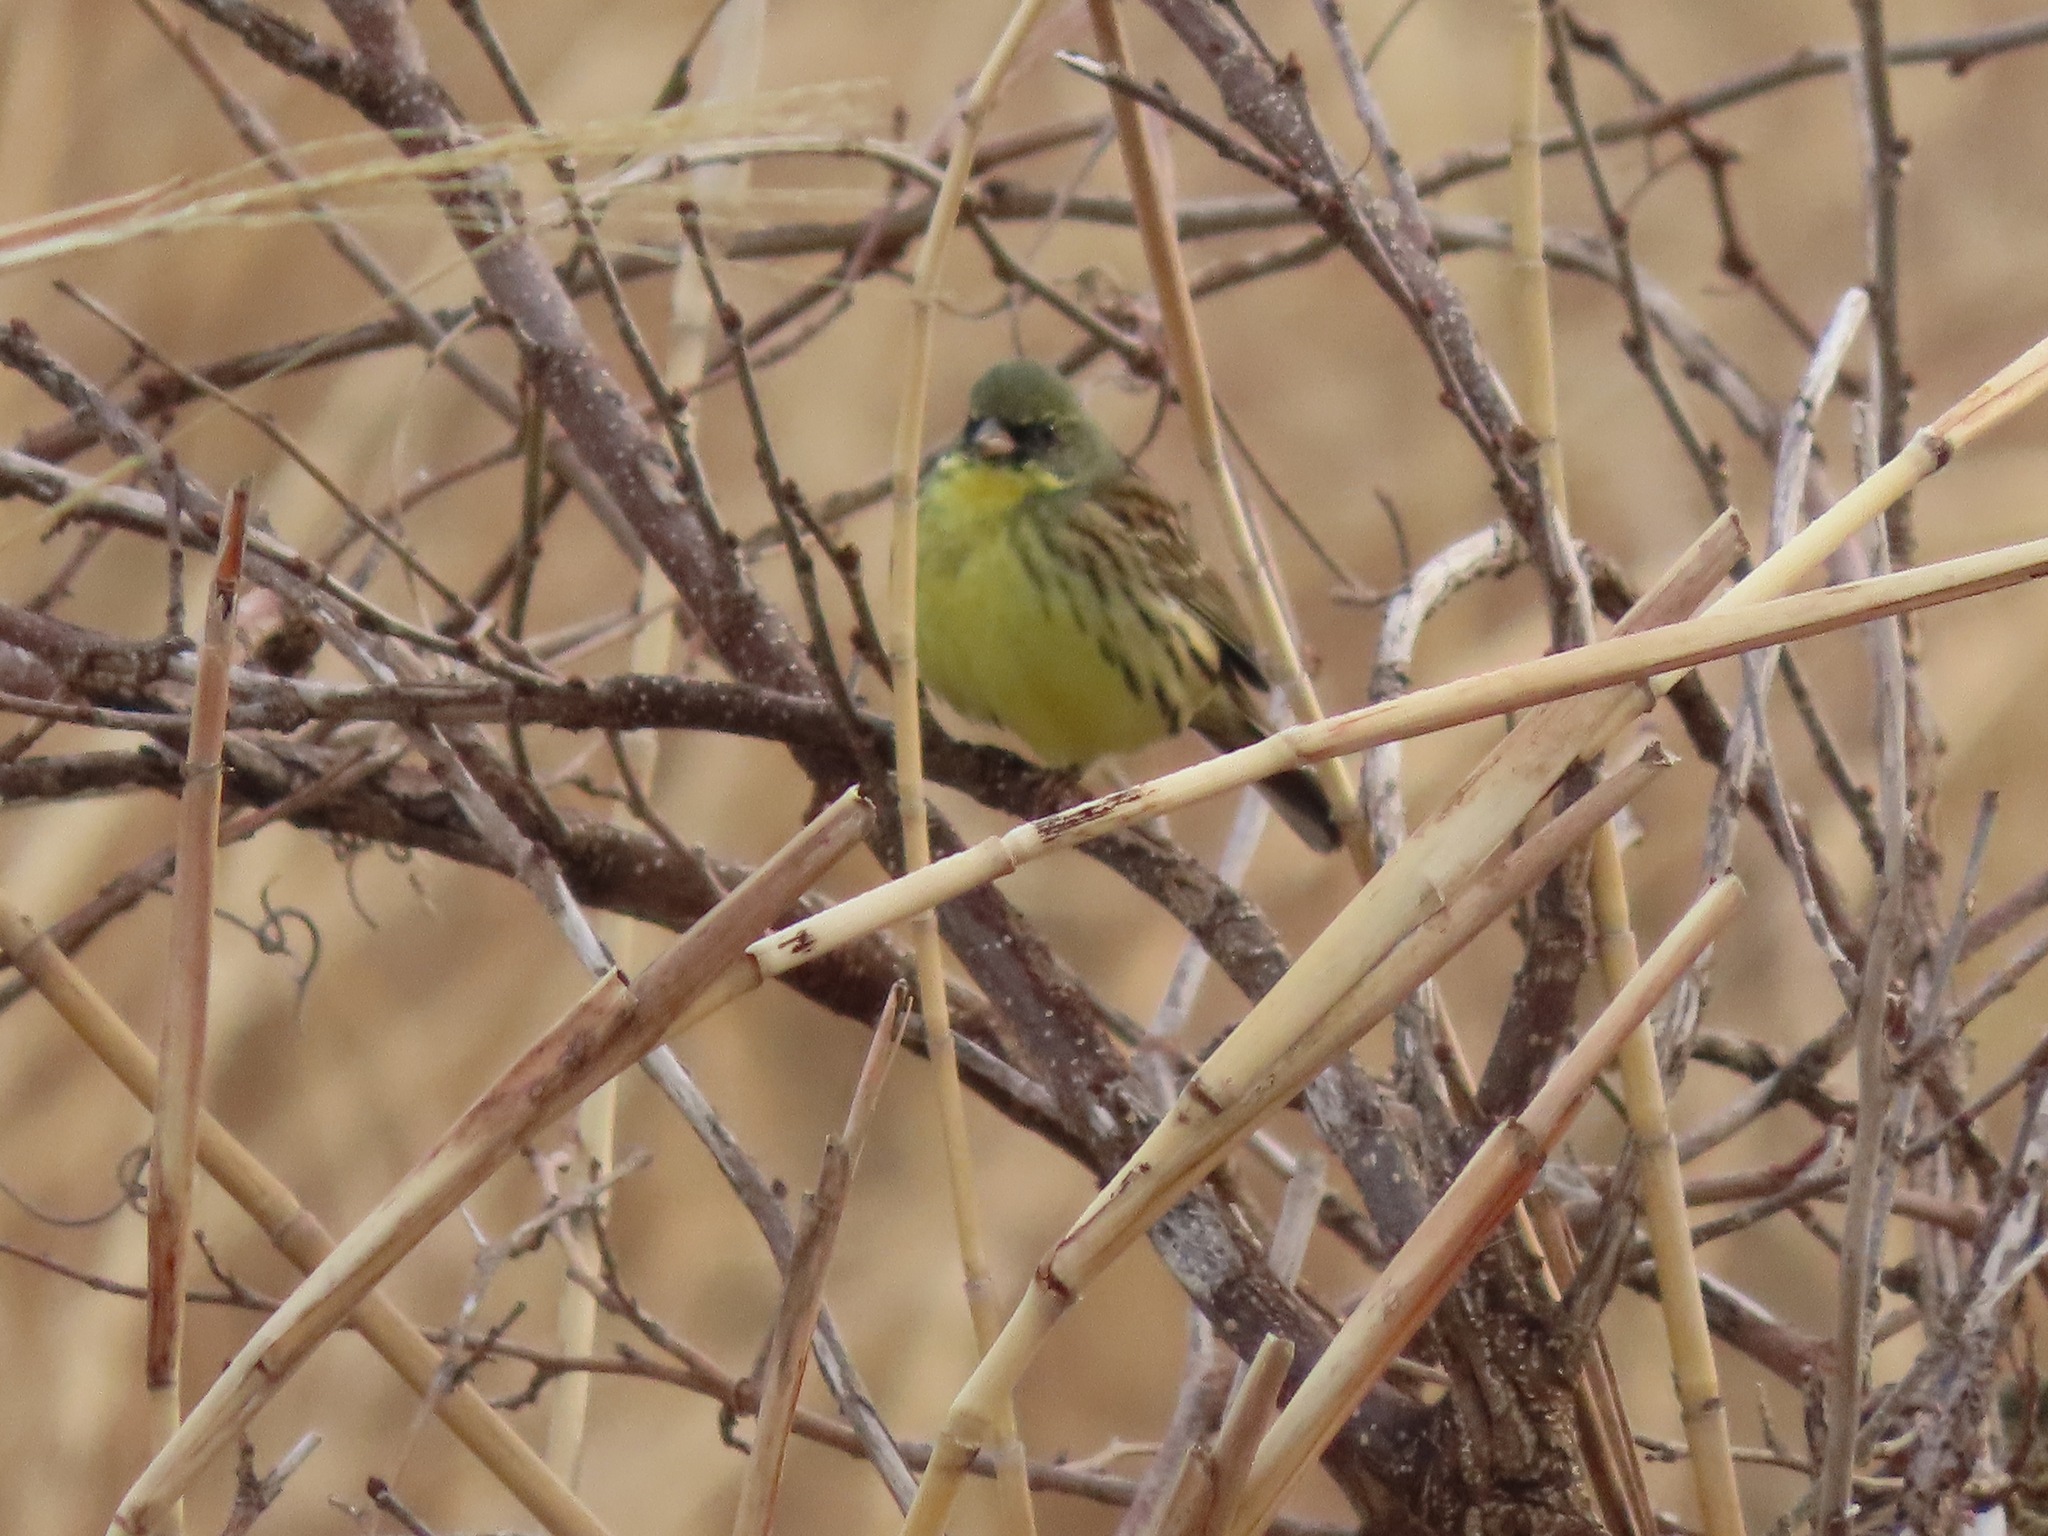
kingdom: Animalia
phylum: Chordata
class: Aves
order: Passeriformes
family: Emberizidae
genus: Emberiza
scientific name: Emberiza personata
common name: Masked bunting
